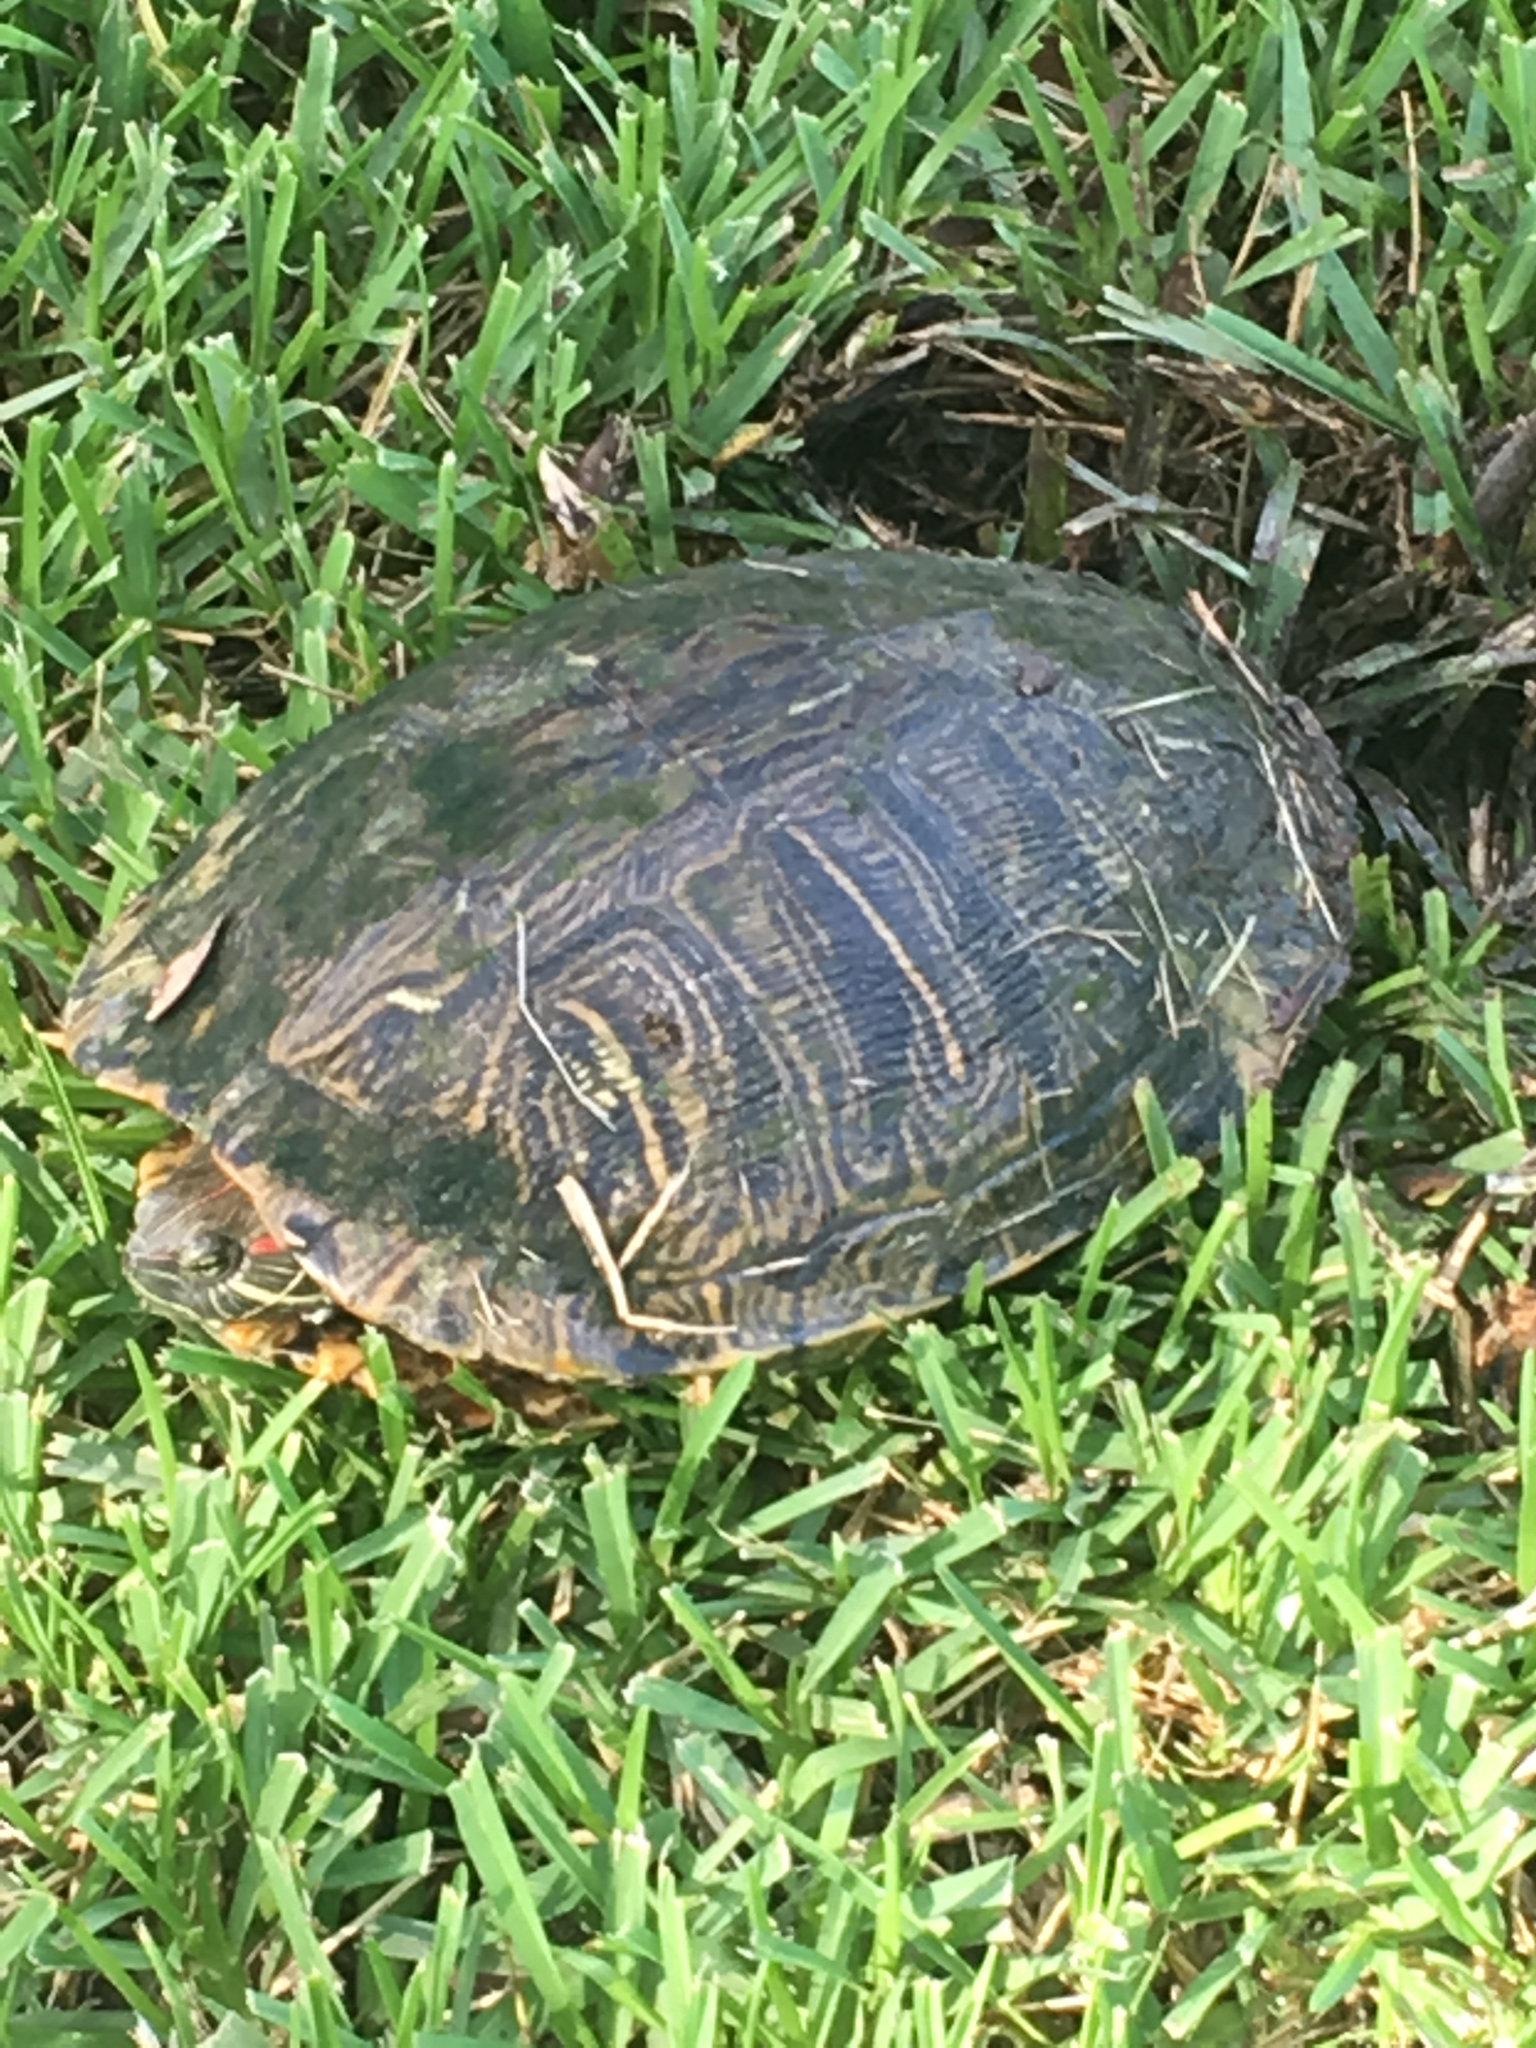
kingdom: Animalia
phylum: Chordata
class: Testudines
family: Emydidae
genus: Trachemys
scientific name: Trachemys scripta
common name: Slider
